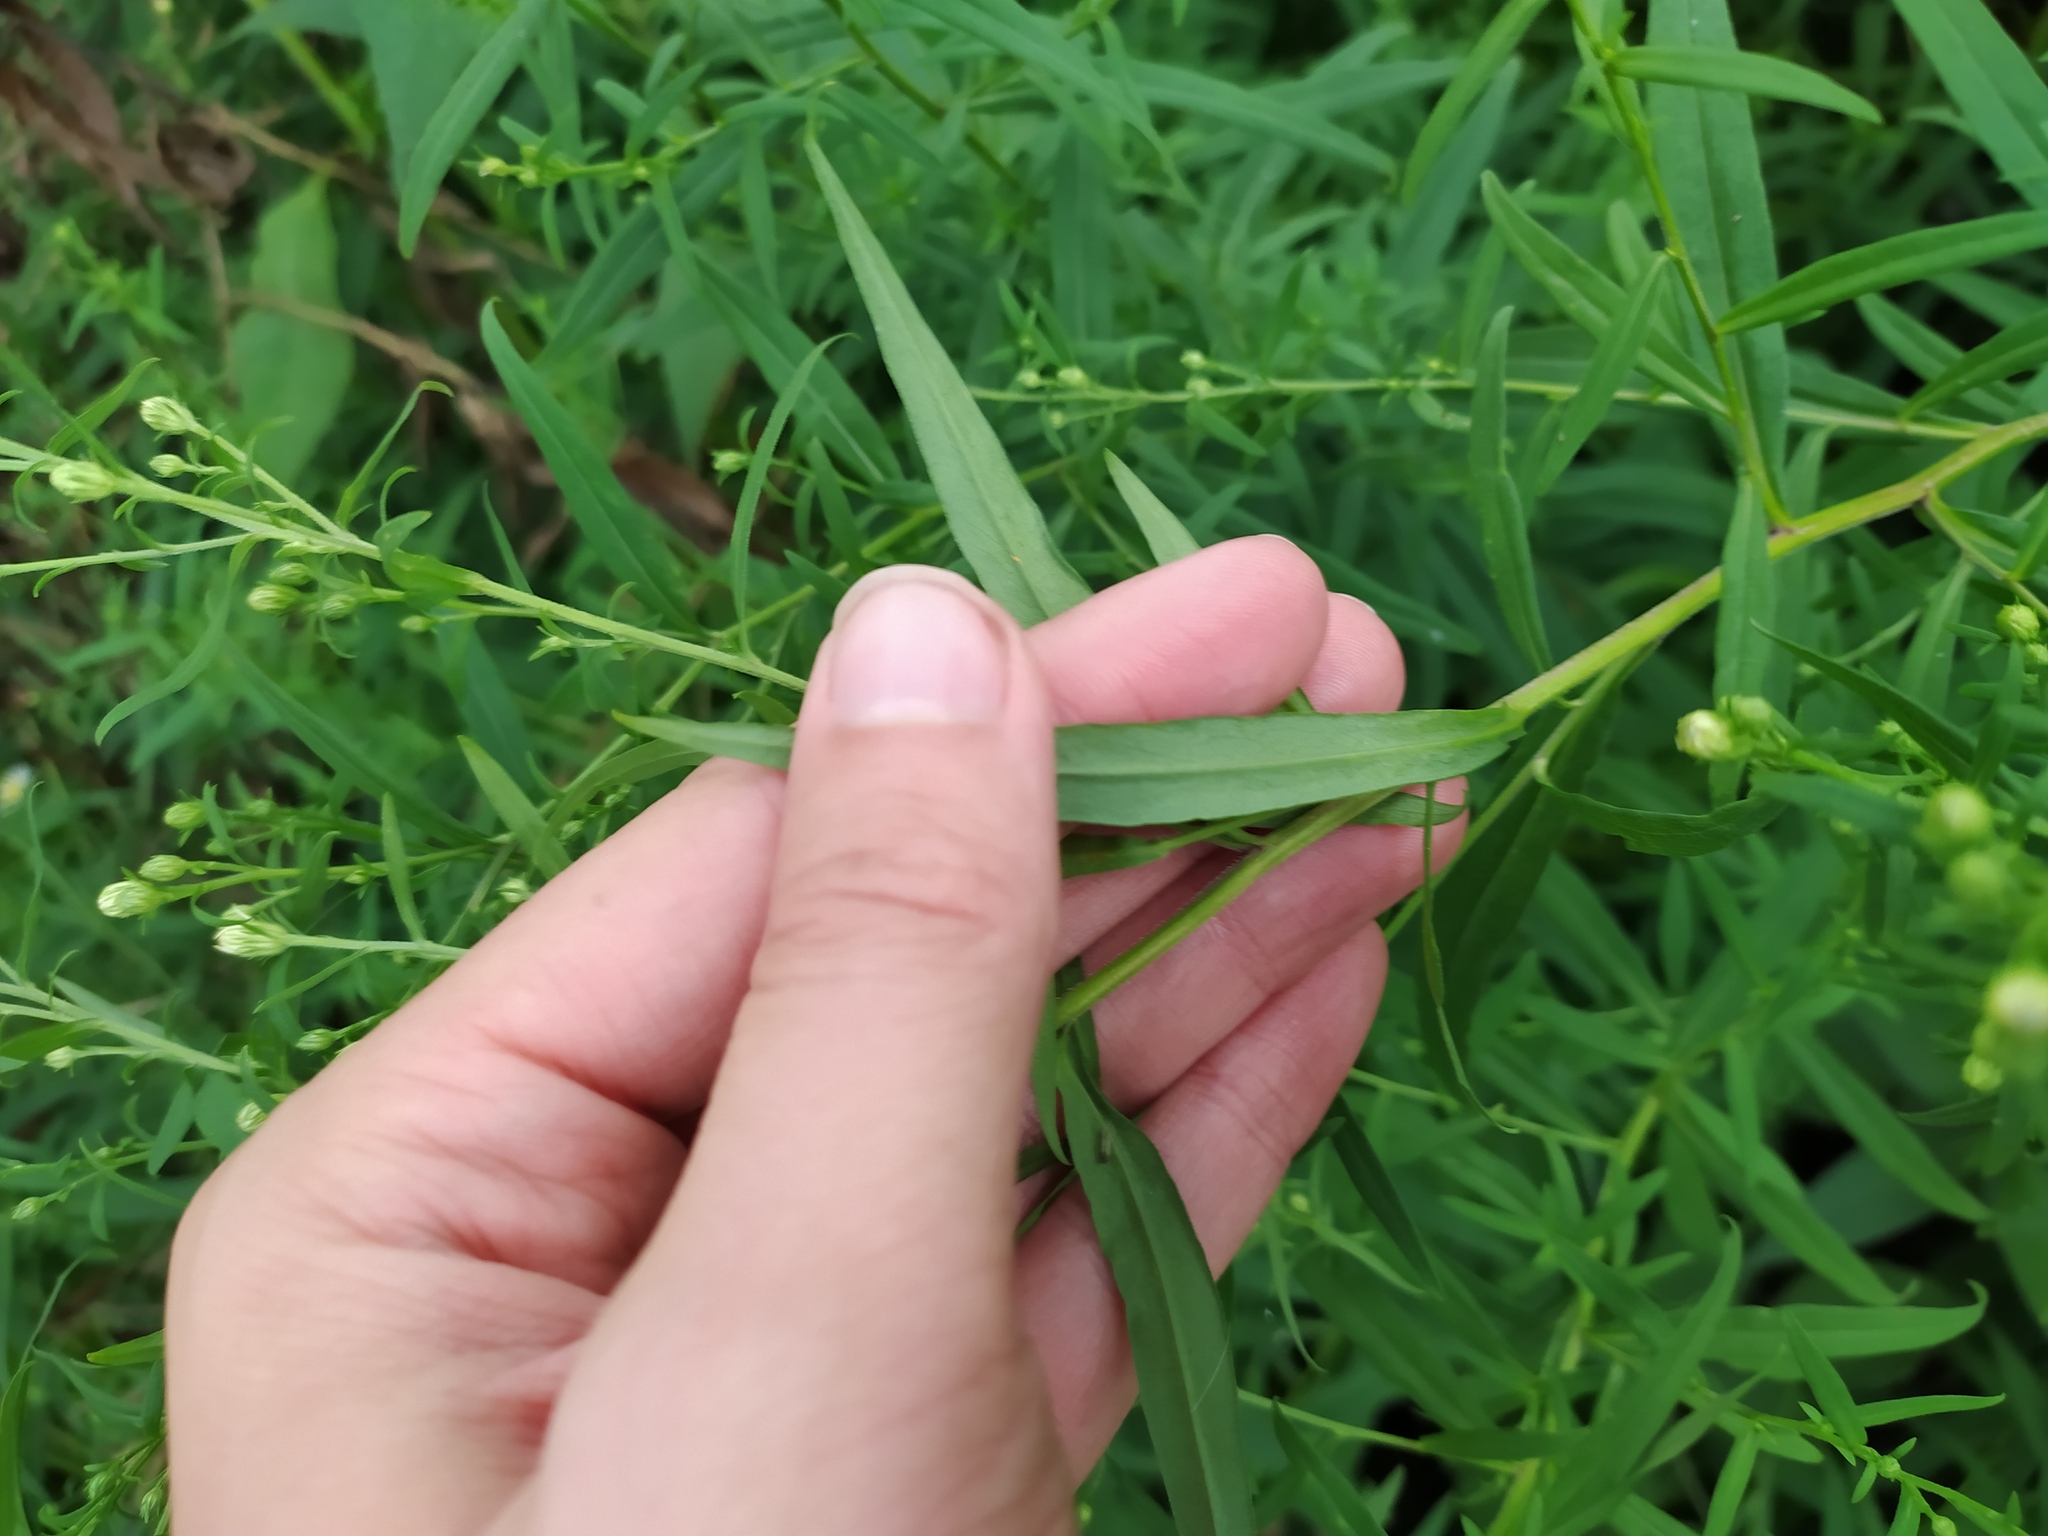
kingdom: Plantae
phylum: Tracheophyta
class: Magnoliopsida
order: Asterales
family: Asteraceae
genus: Symphyotrichum
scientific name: Symphyotrichum lanceolatum
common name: Panicled aster
